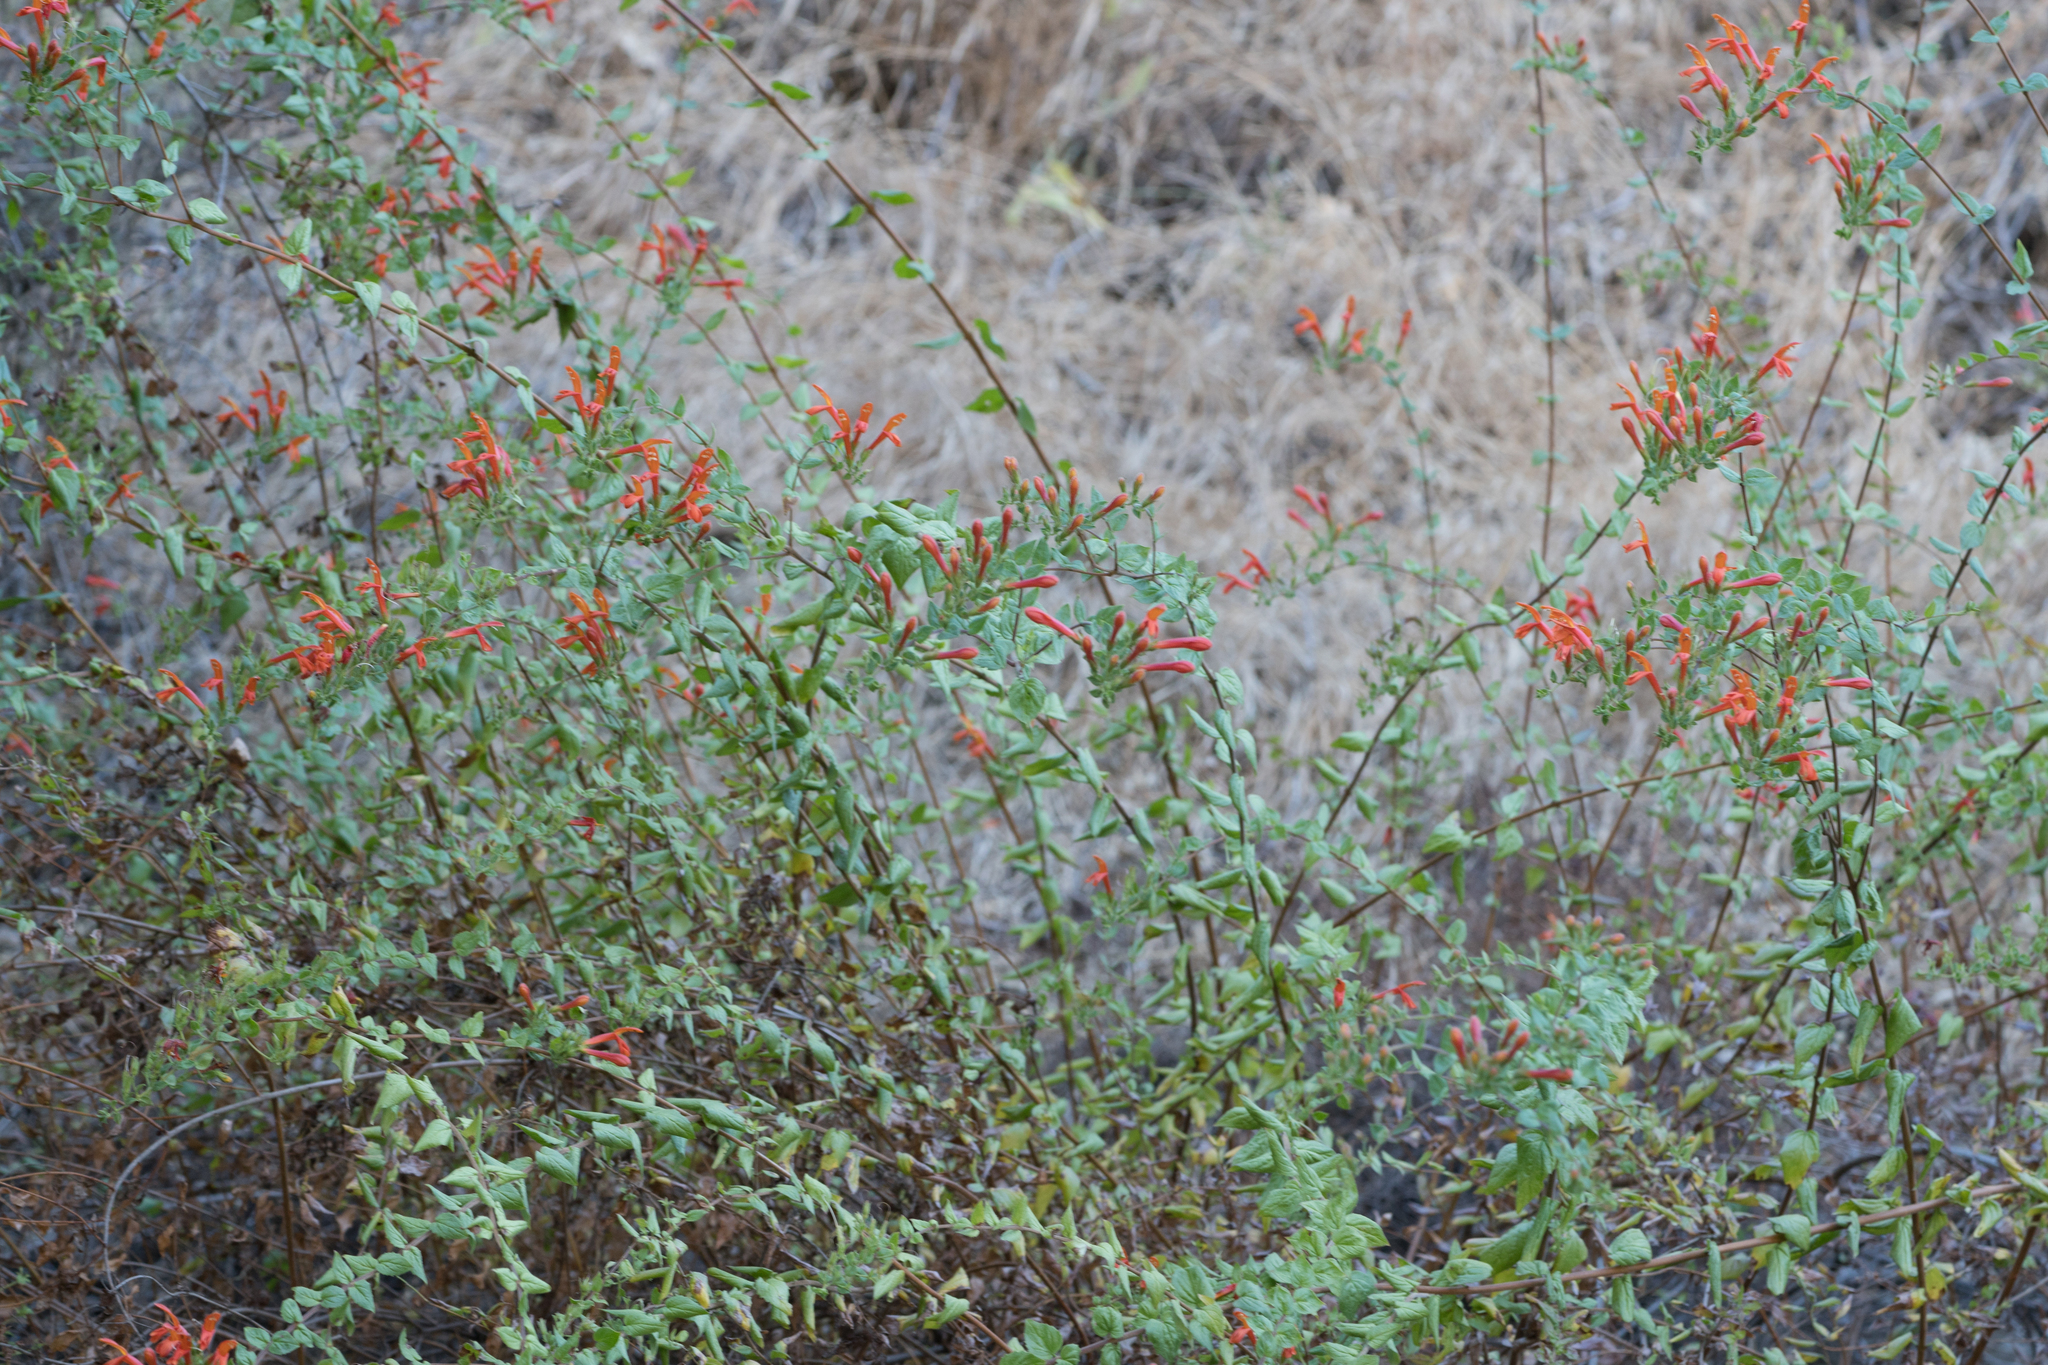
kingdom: Plantae
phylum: Tracheophyta
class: Magnoliopsida
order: Lamiales
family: Plantaginaceae
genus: Keckiella
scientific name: Keckiella cordifolia
